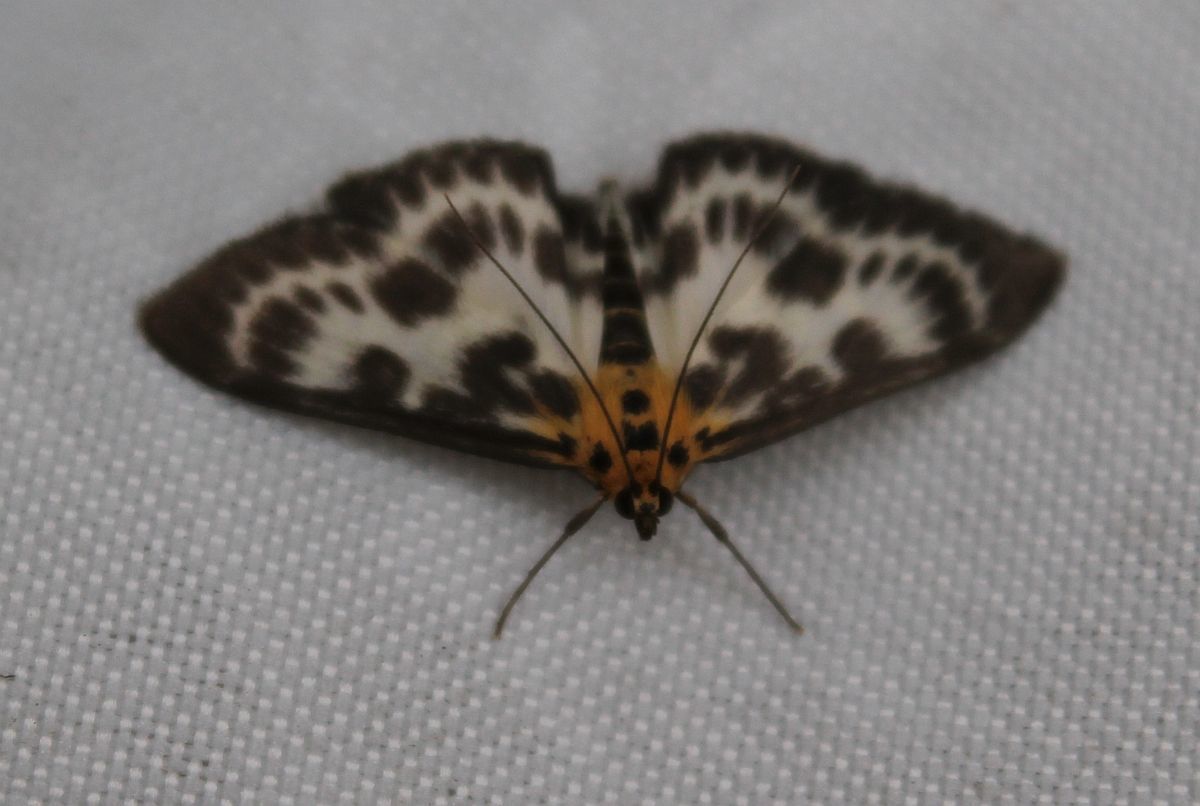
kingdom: Animalia
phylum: Arthropoda
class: Insecta
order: Lepidoptera
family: Crambidae
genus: Anania
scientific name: Anania hortulata
